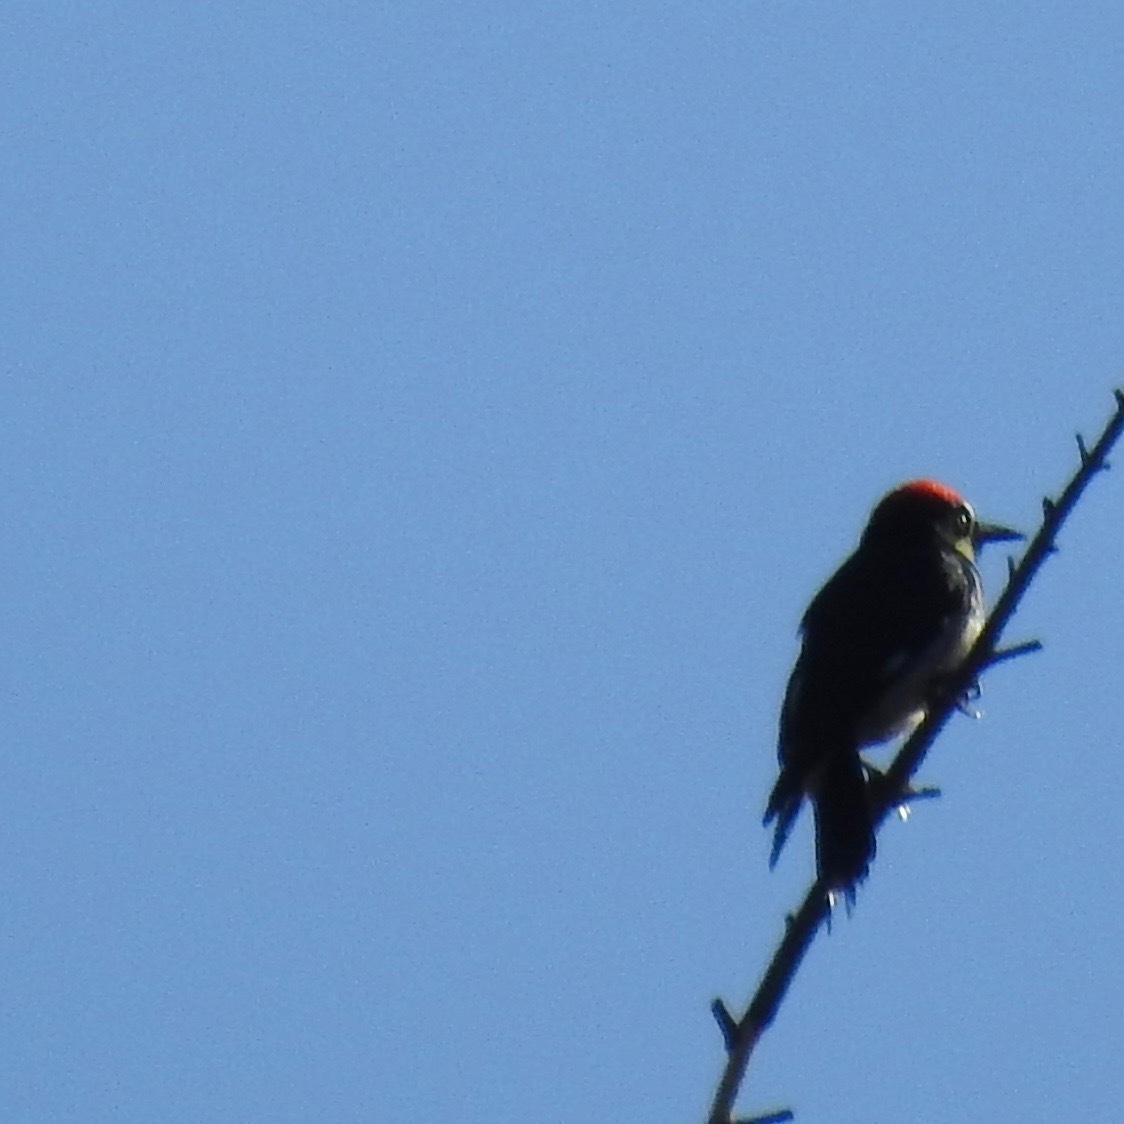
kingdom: Animalia
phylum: Chordata
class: Aves
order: Piciformes
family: Picidae
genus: Melanerpes
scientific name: Melanerpes formicivorus
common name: Acorn woodpecker
